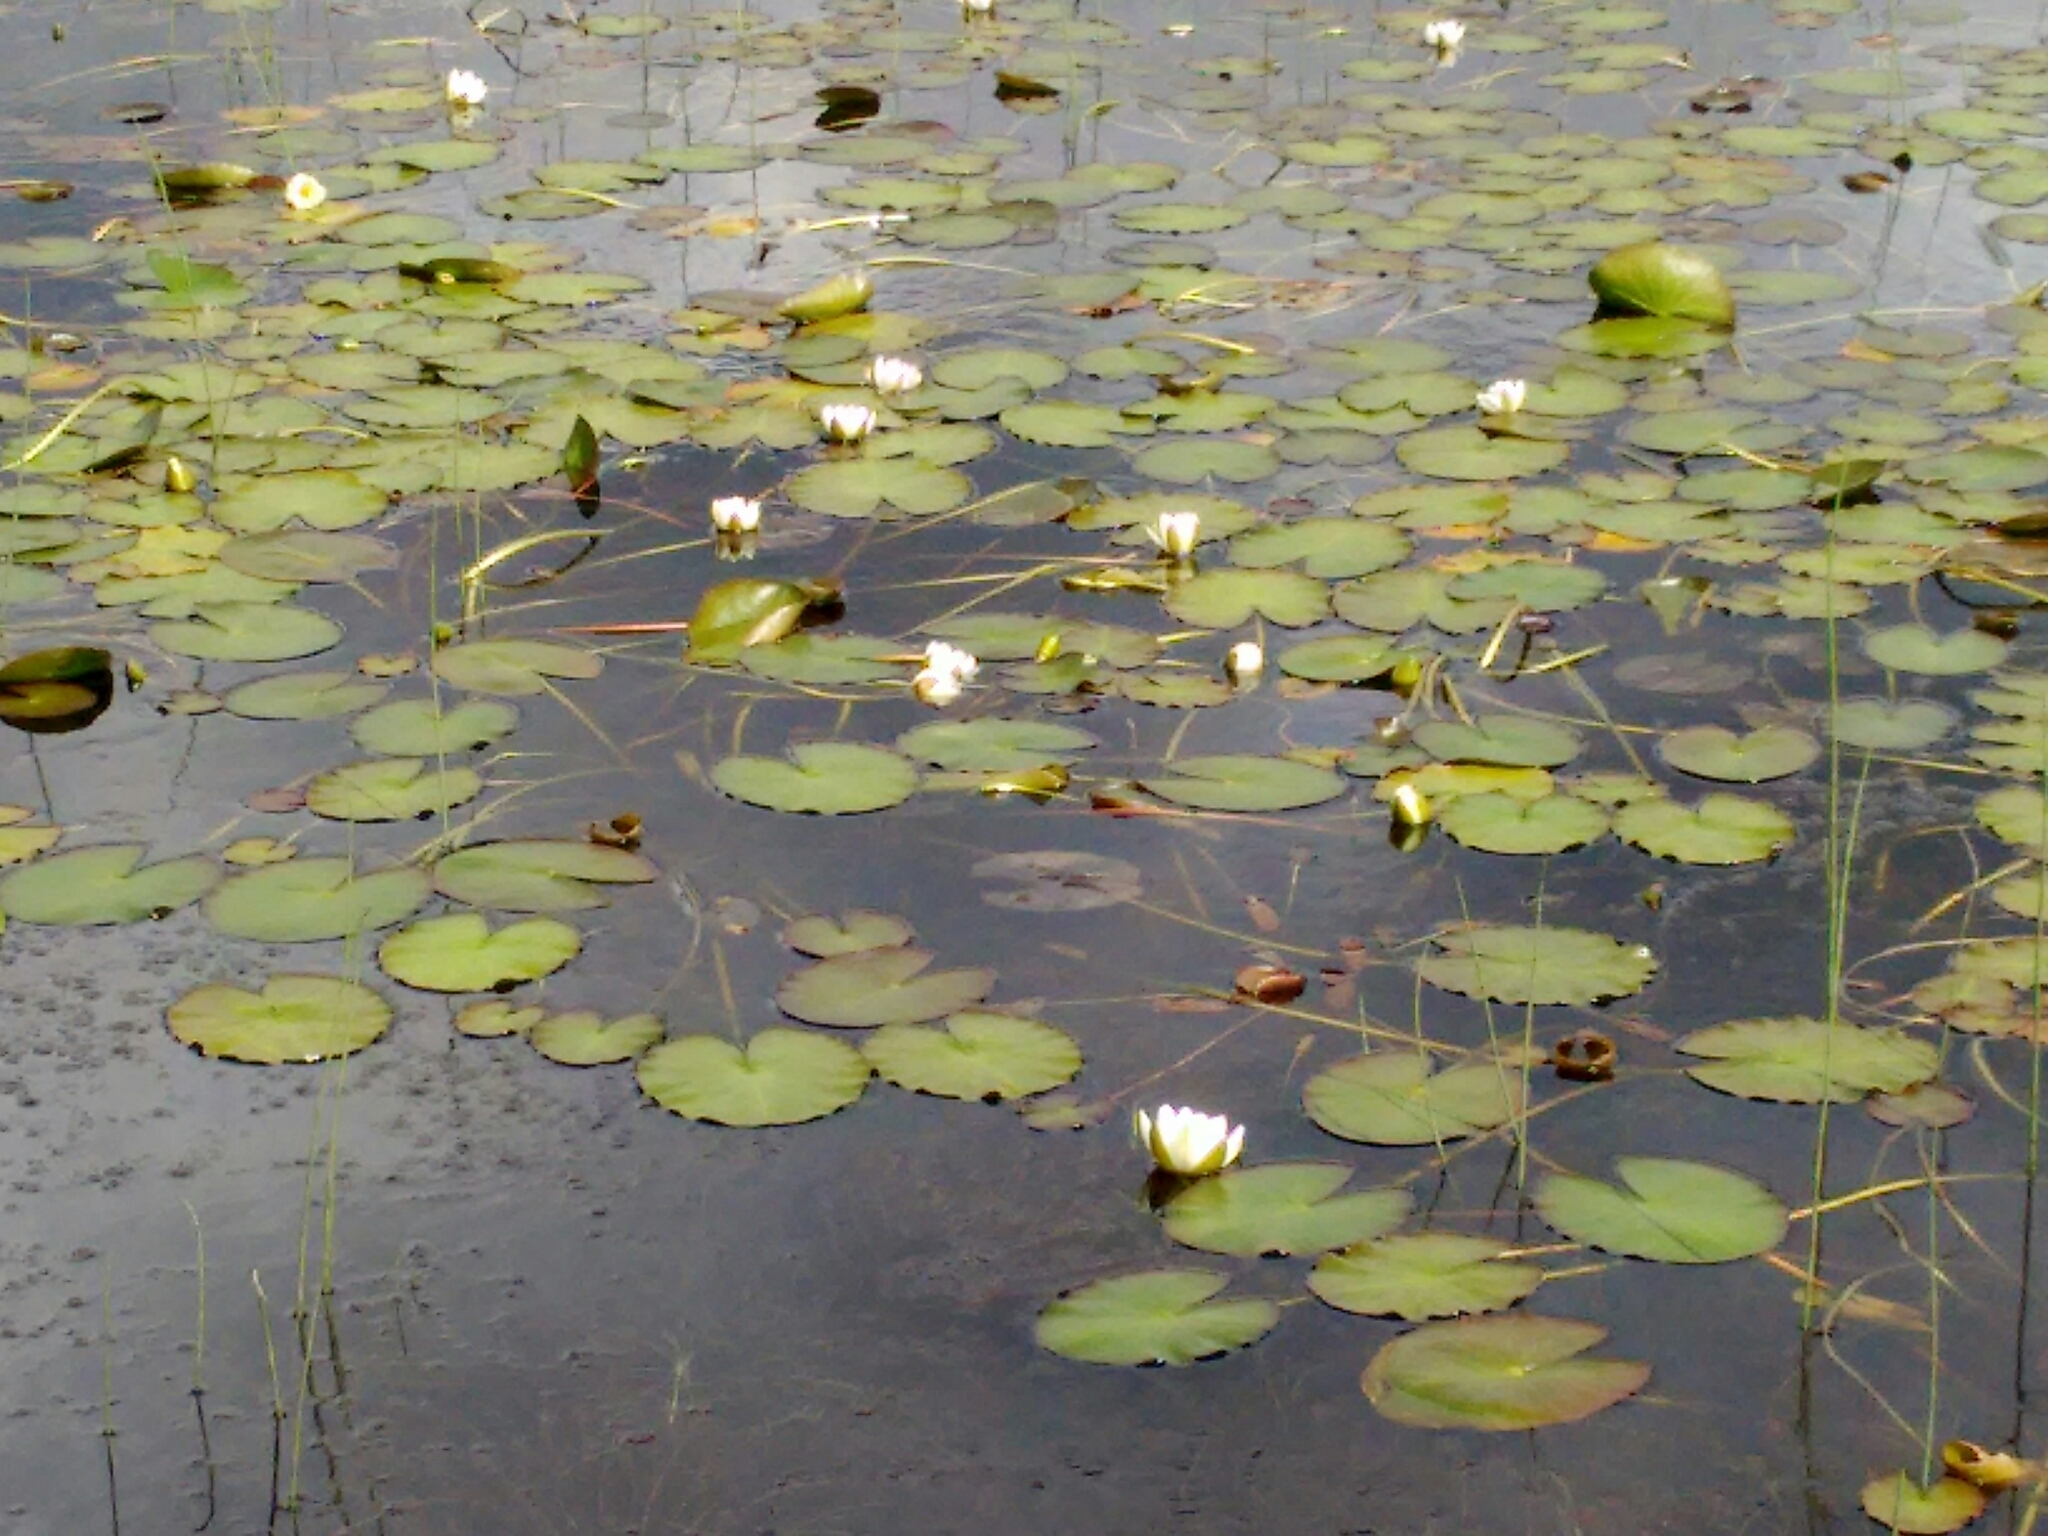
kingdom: Plantae
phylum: Tracheophyta
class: Magnoliopsida
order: Nymphaeales
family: Nymphaeaceae
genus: Nymphaea
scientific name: Nymphaea alba
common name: White water-lily
